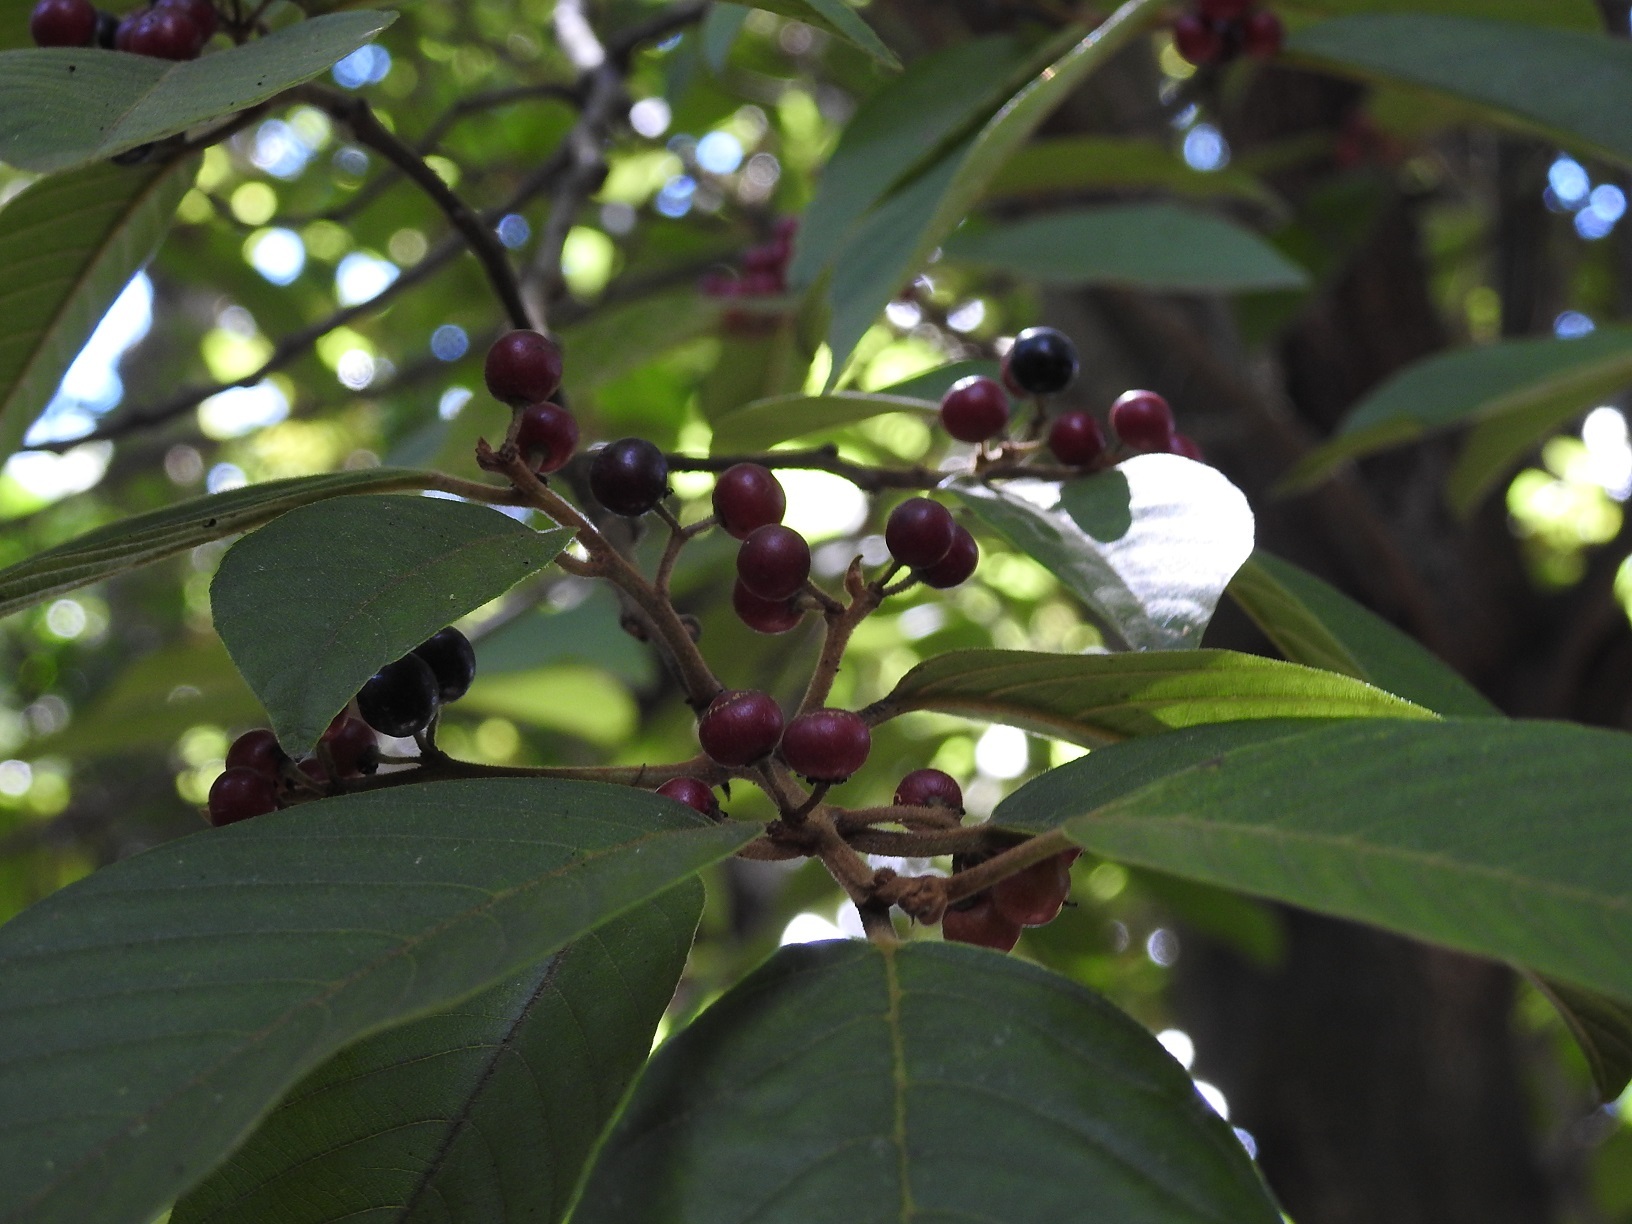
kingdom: Plantae
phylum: Tracheophyta
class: Magnoliopsida
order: Rosales
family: Rhamnaceae
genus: Frangula
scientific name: Frangula capreifolia
